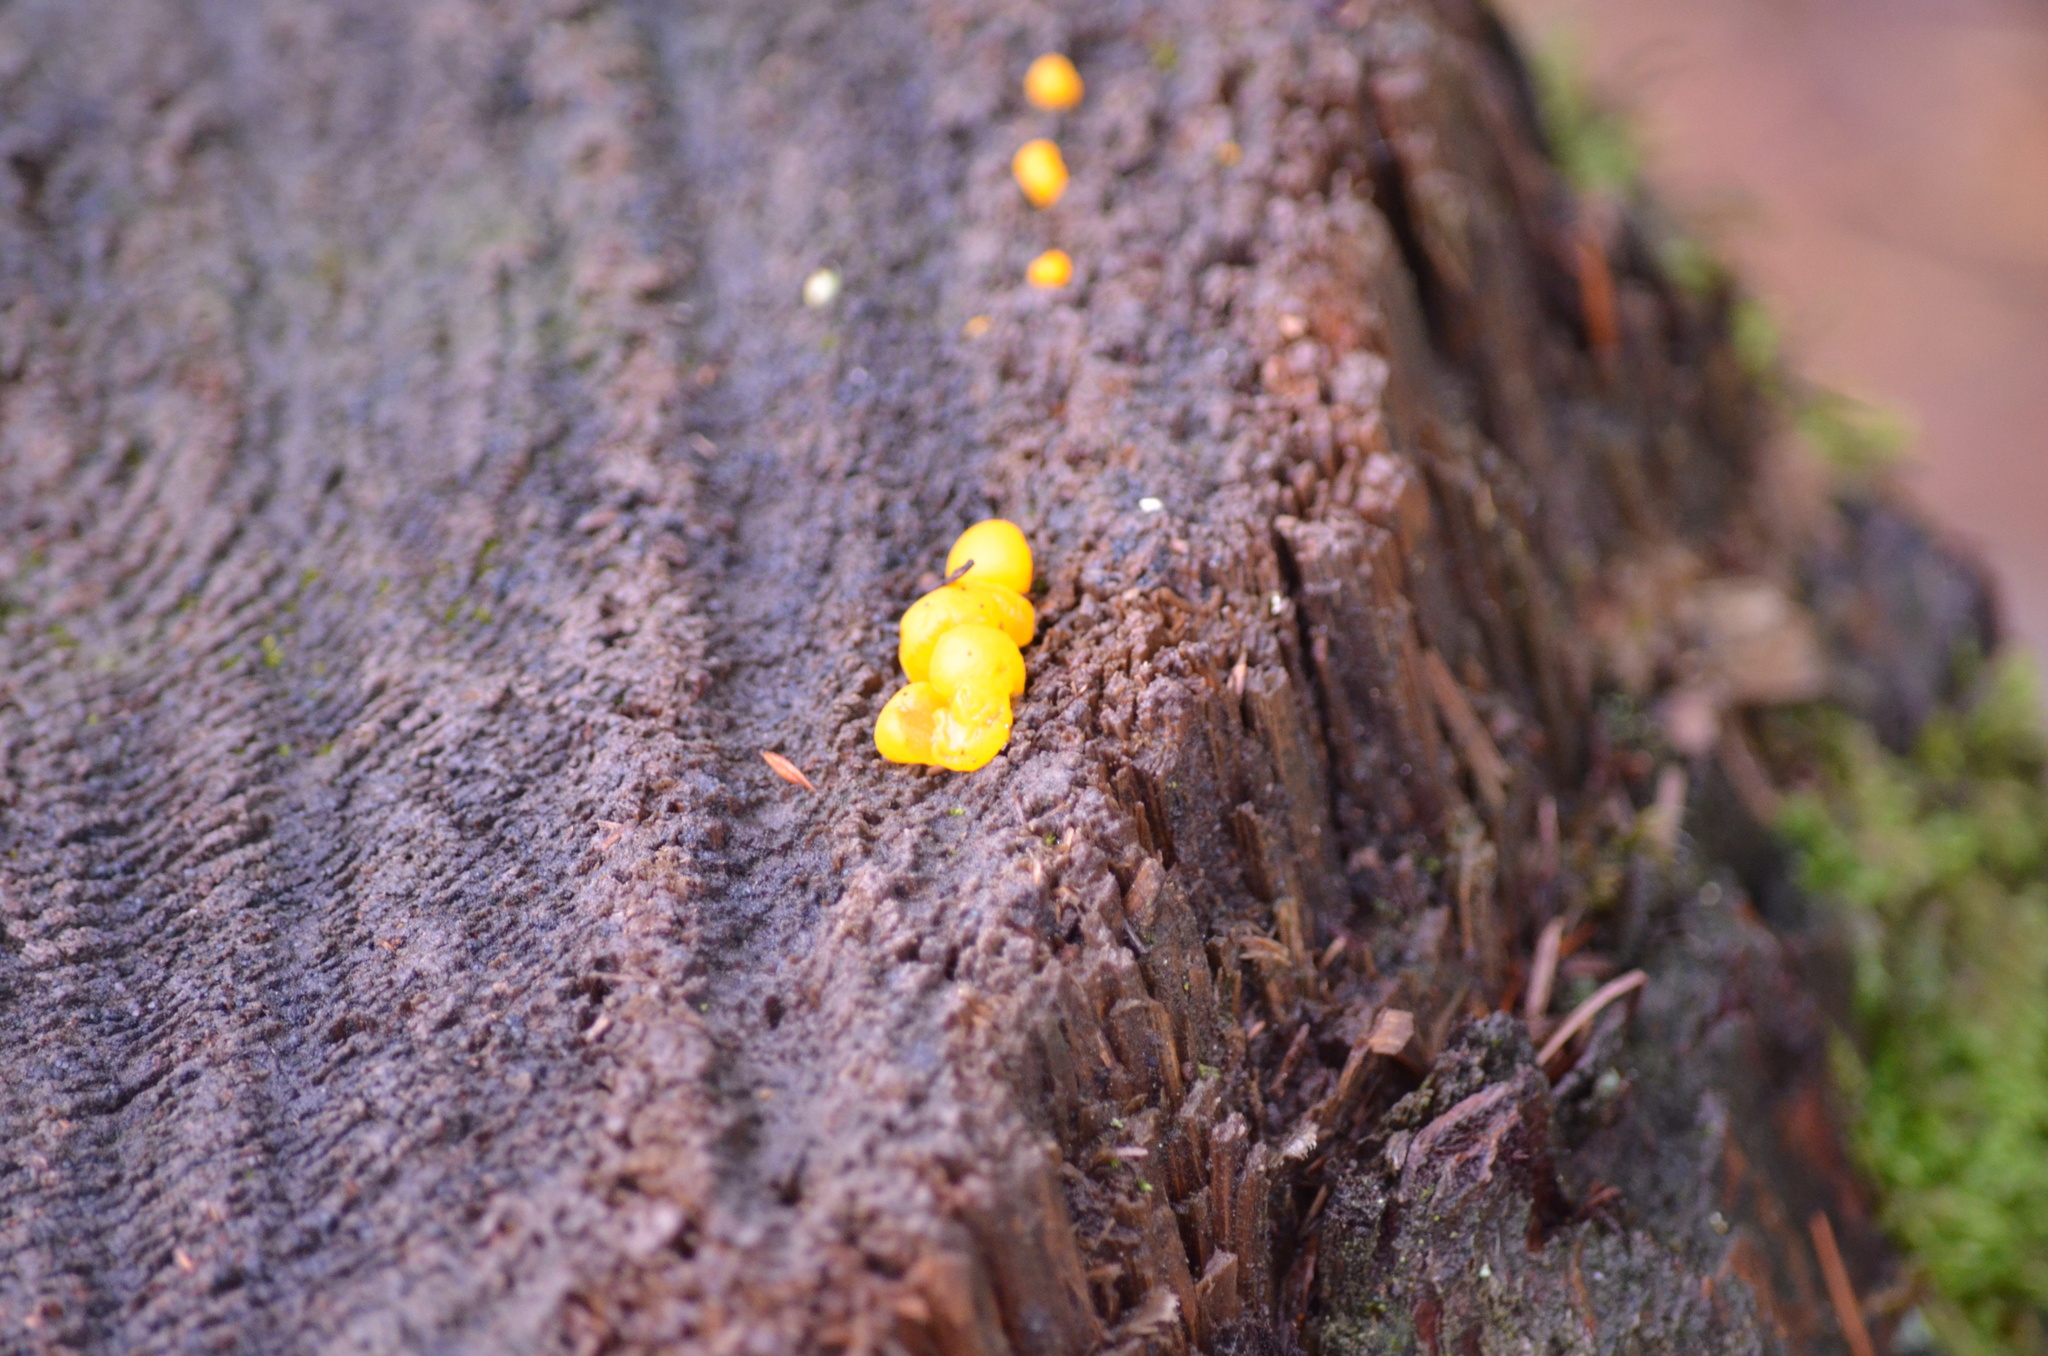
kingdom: Fungi
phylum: Basidiomycota
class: Dacrymycetes
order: Dacrymycetales
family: Dacrymycetaceae
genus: Guepiniopsis
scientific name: Guepiniopsis alpina
